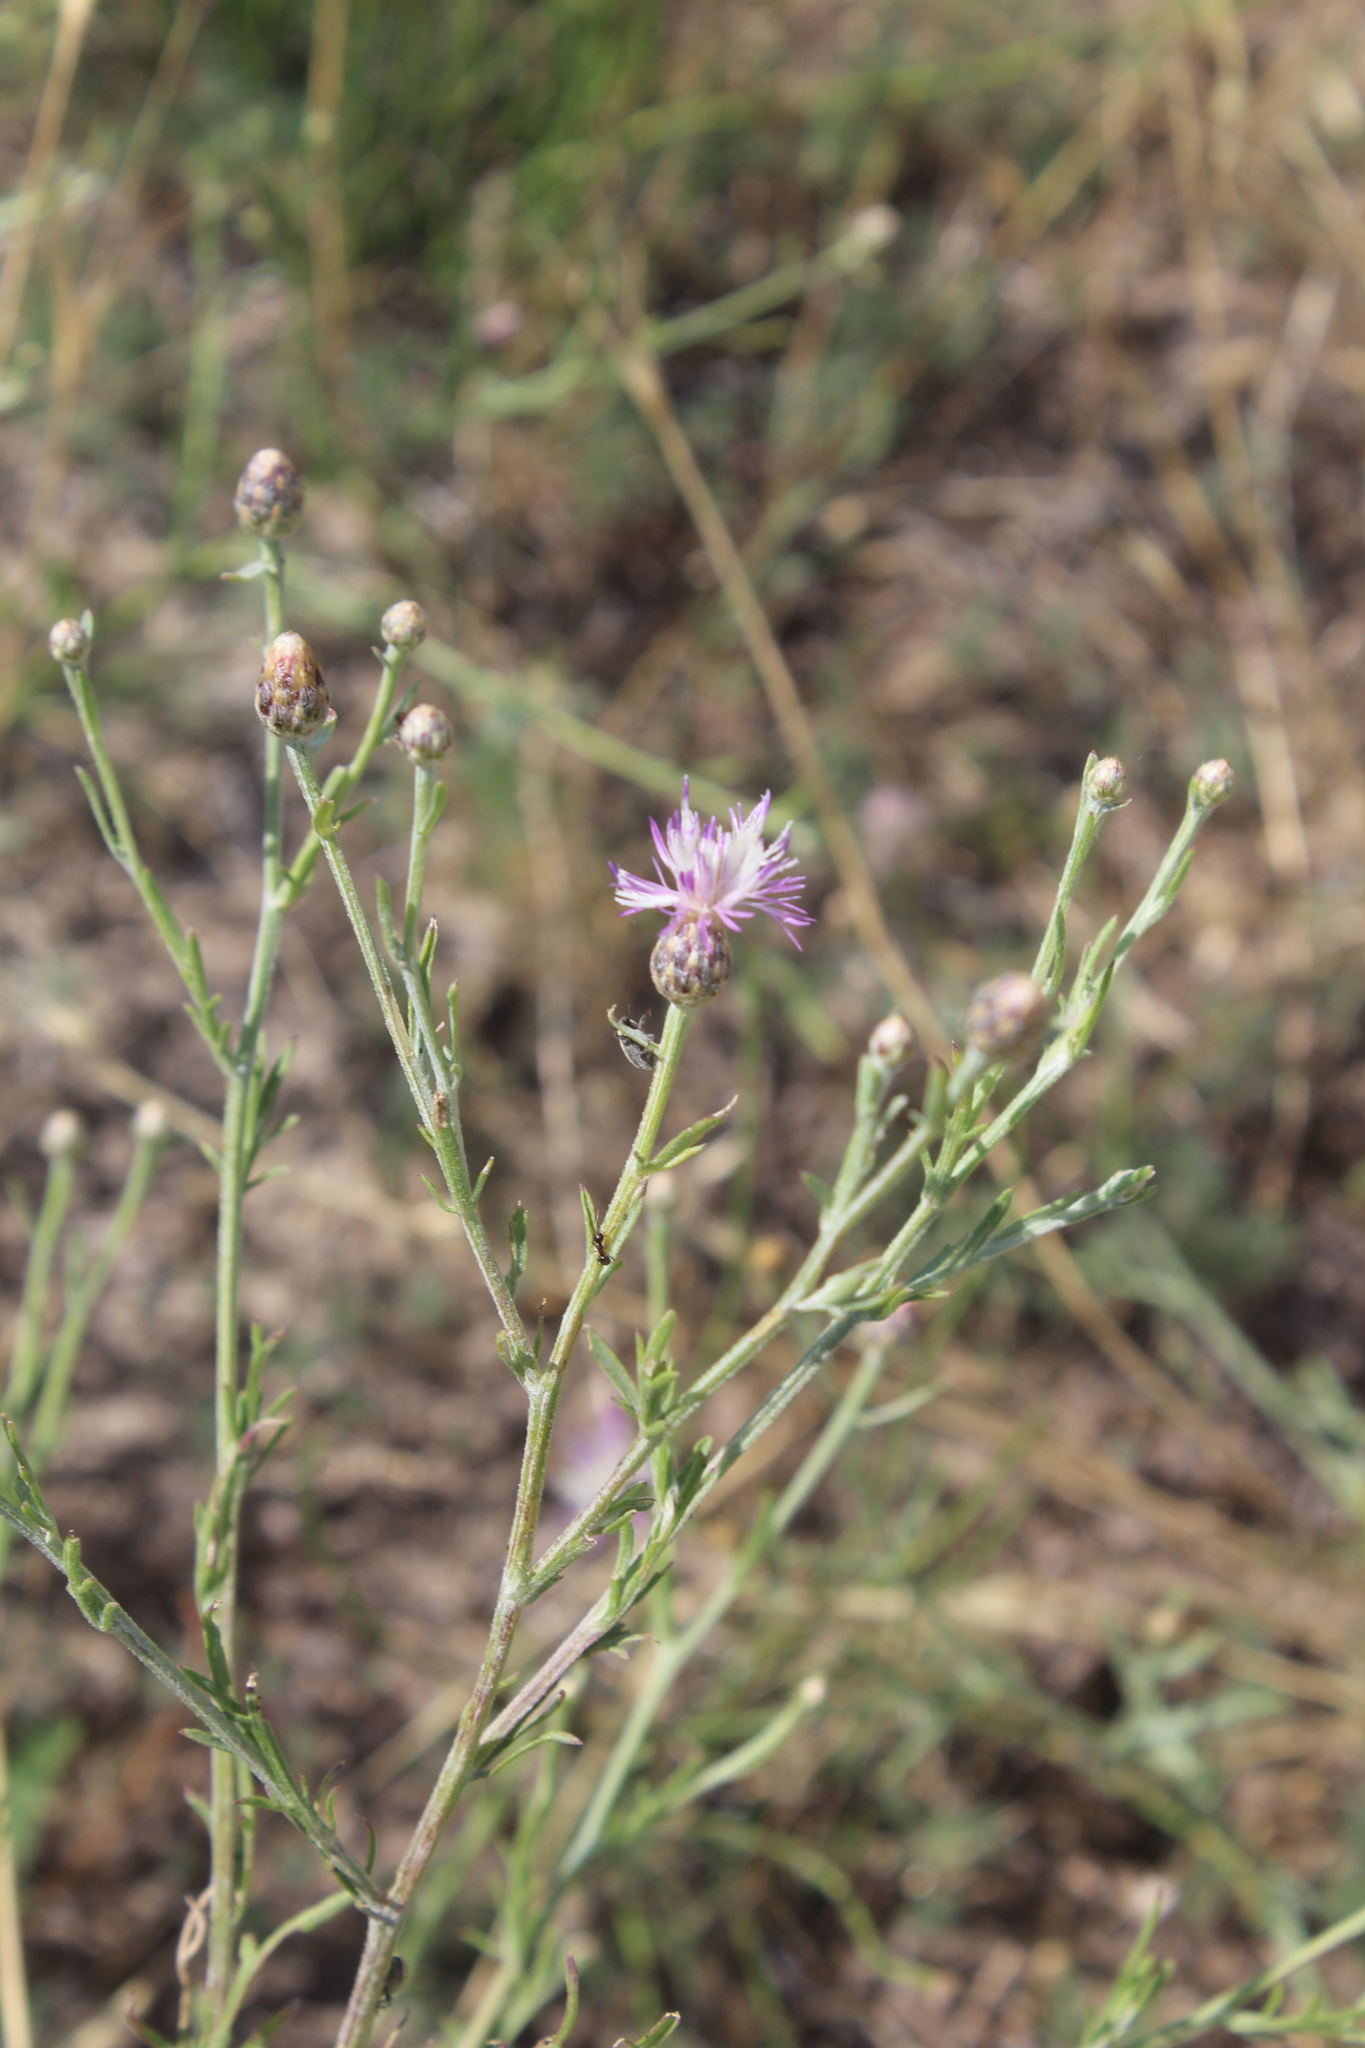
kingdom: Plantae
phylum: Tracheophyta
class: Magnoliopsida
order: Asterales
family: Asteraceae
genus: Centaurea
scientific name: Centaurea arenaria
